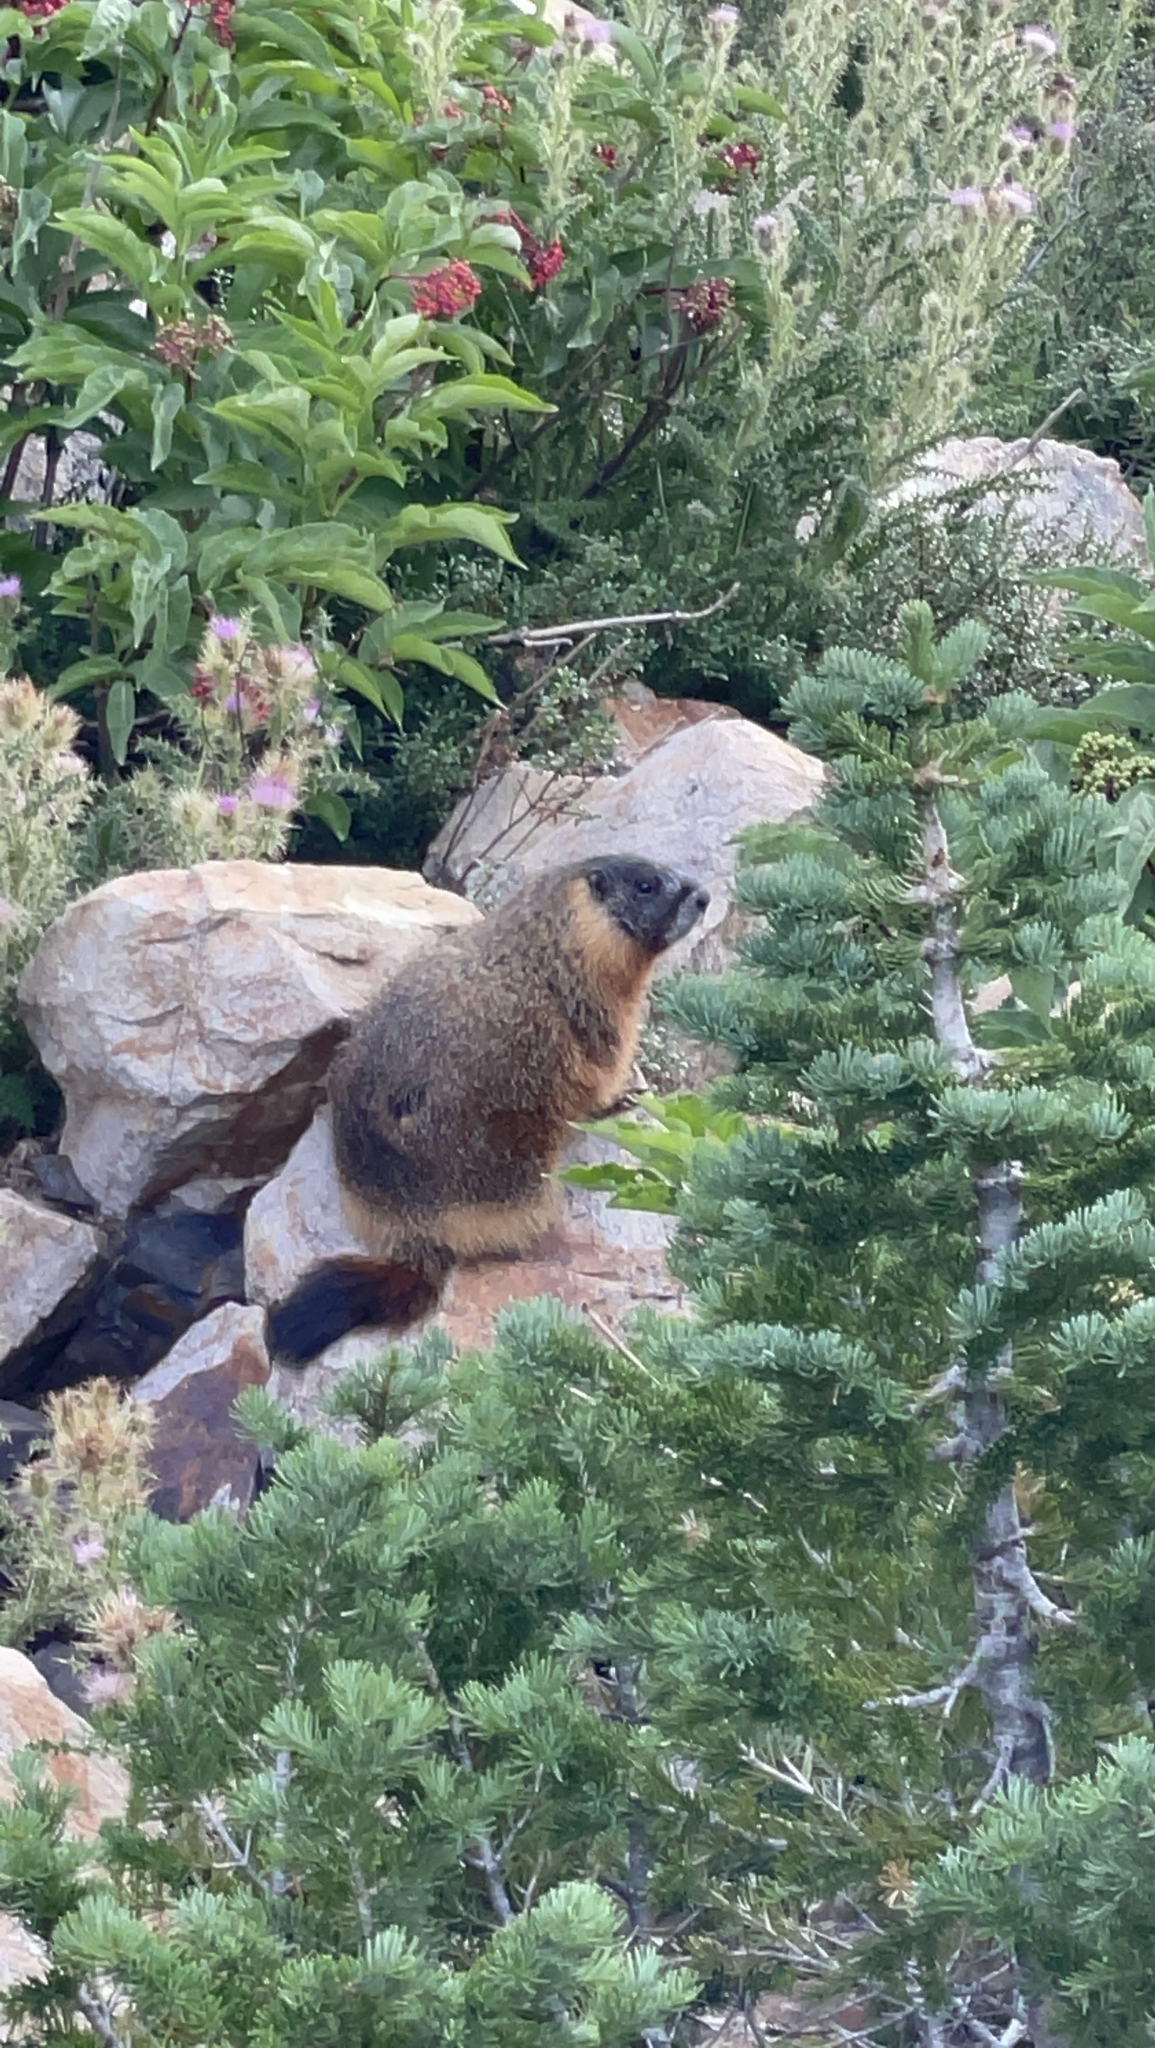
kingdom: Animalia
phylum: Chordata
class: Mammalia
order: Rodentia
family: Sciuridae
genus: Marmota
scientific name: Marmota flaviventris
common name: Yellow-bellied marmot
